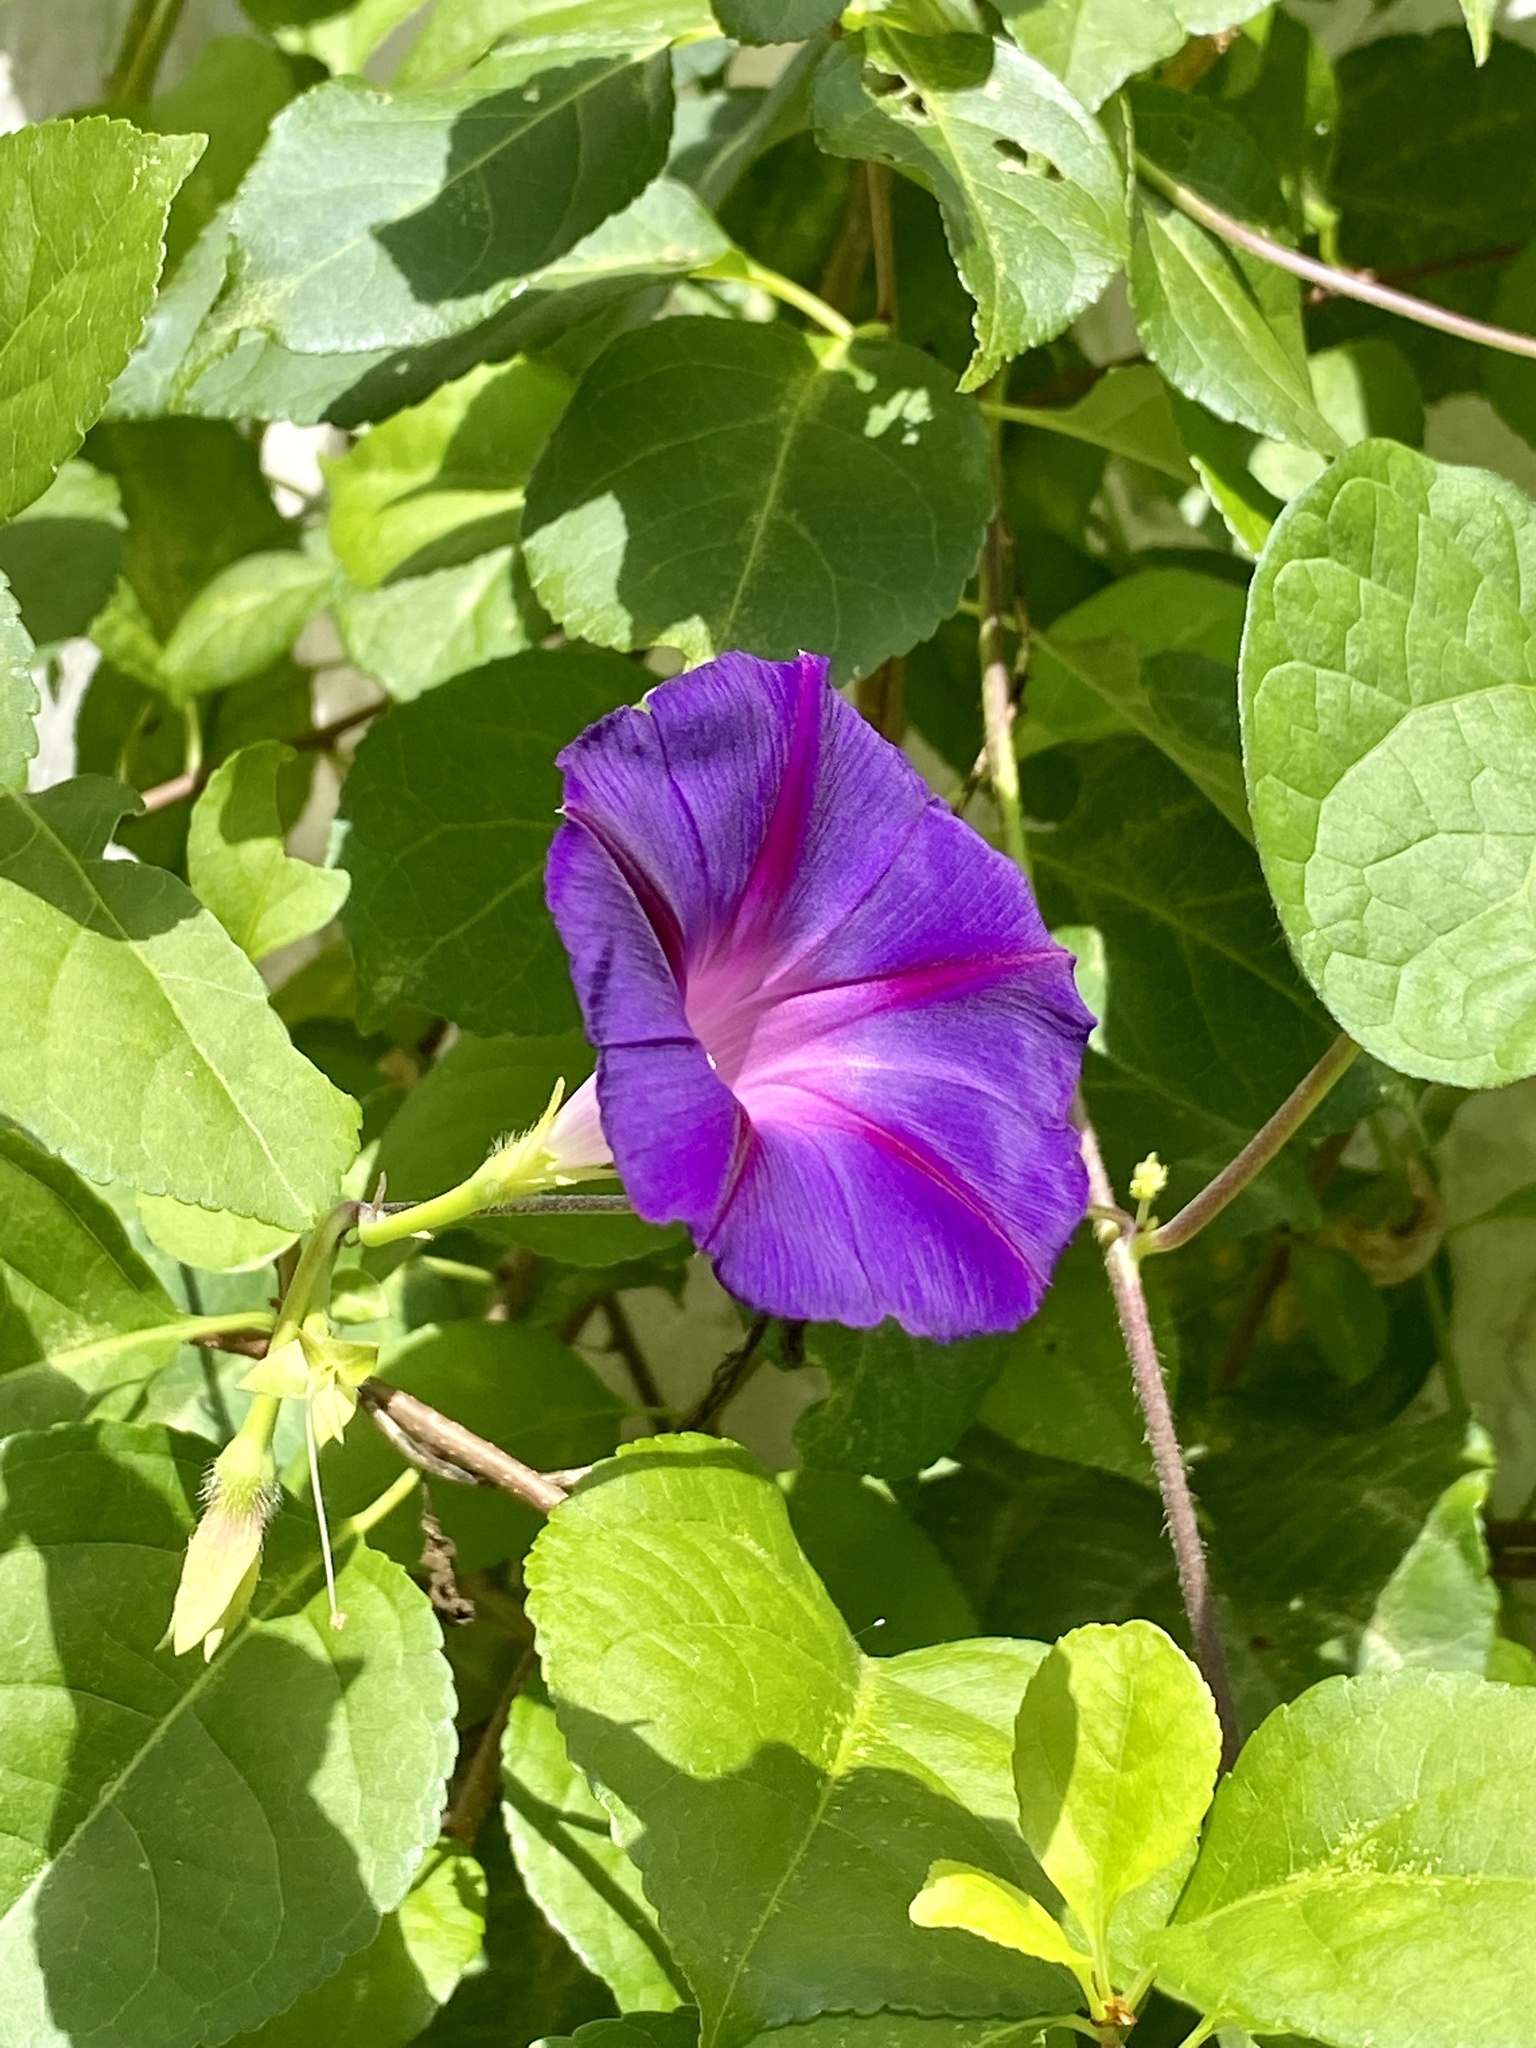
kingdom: Plantae
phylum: Tracheophyta
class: Magnoliopsida
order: Solanales
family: Convolvulaceae
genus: Ipomoea
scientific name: Ipomoea purpurea
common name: Common morning-glory
